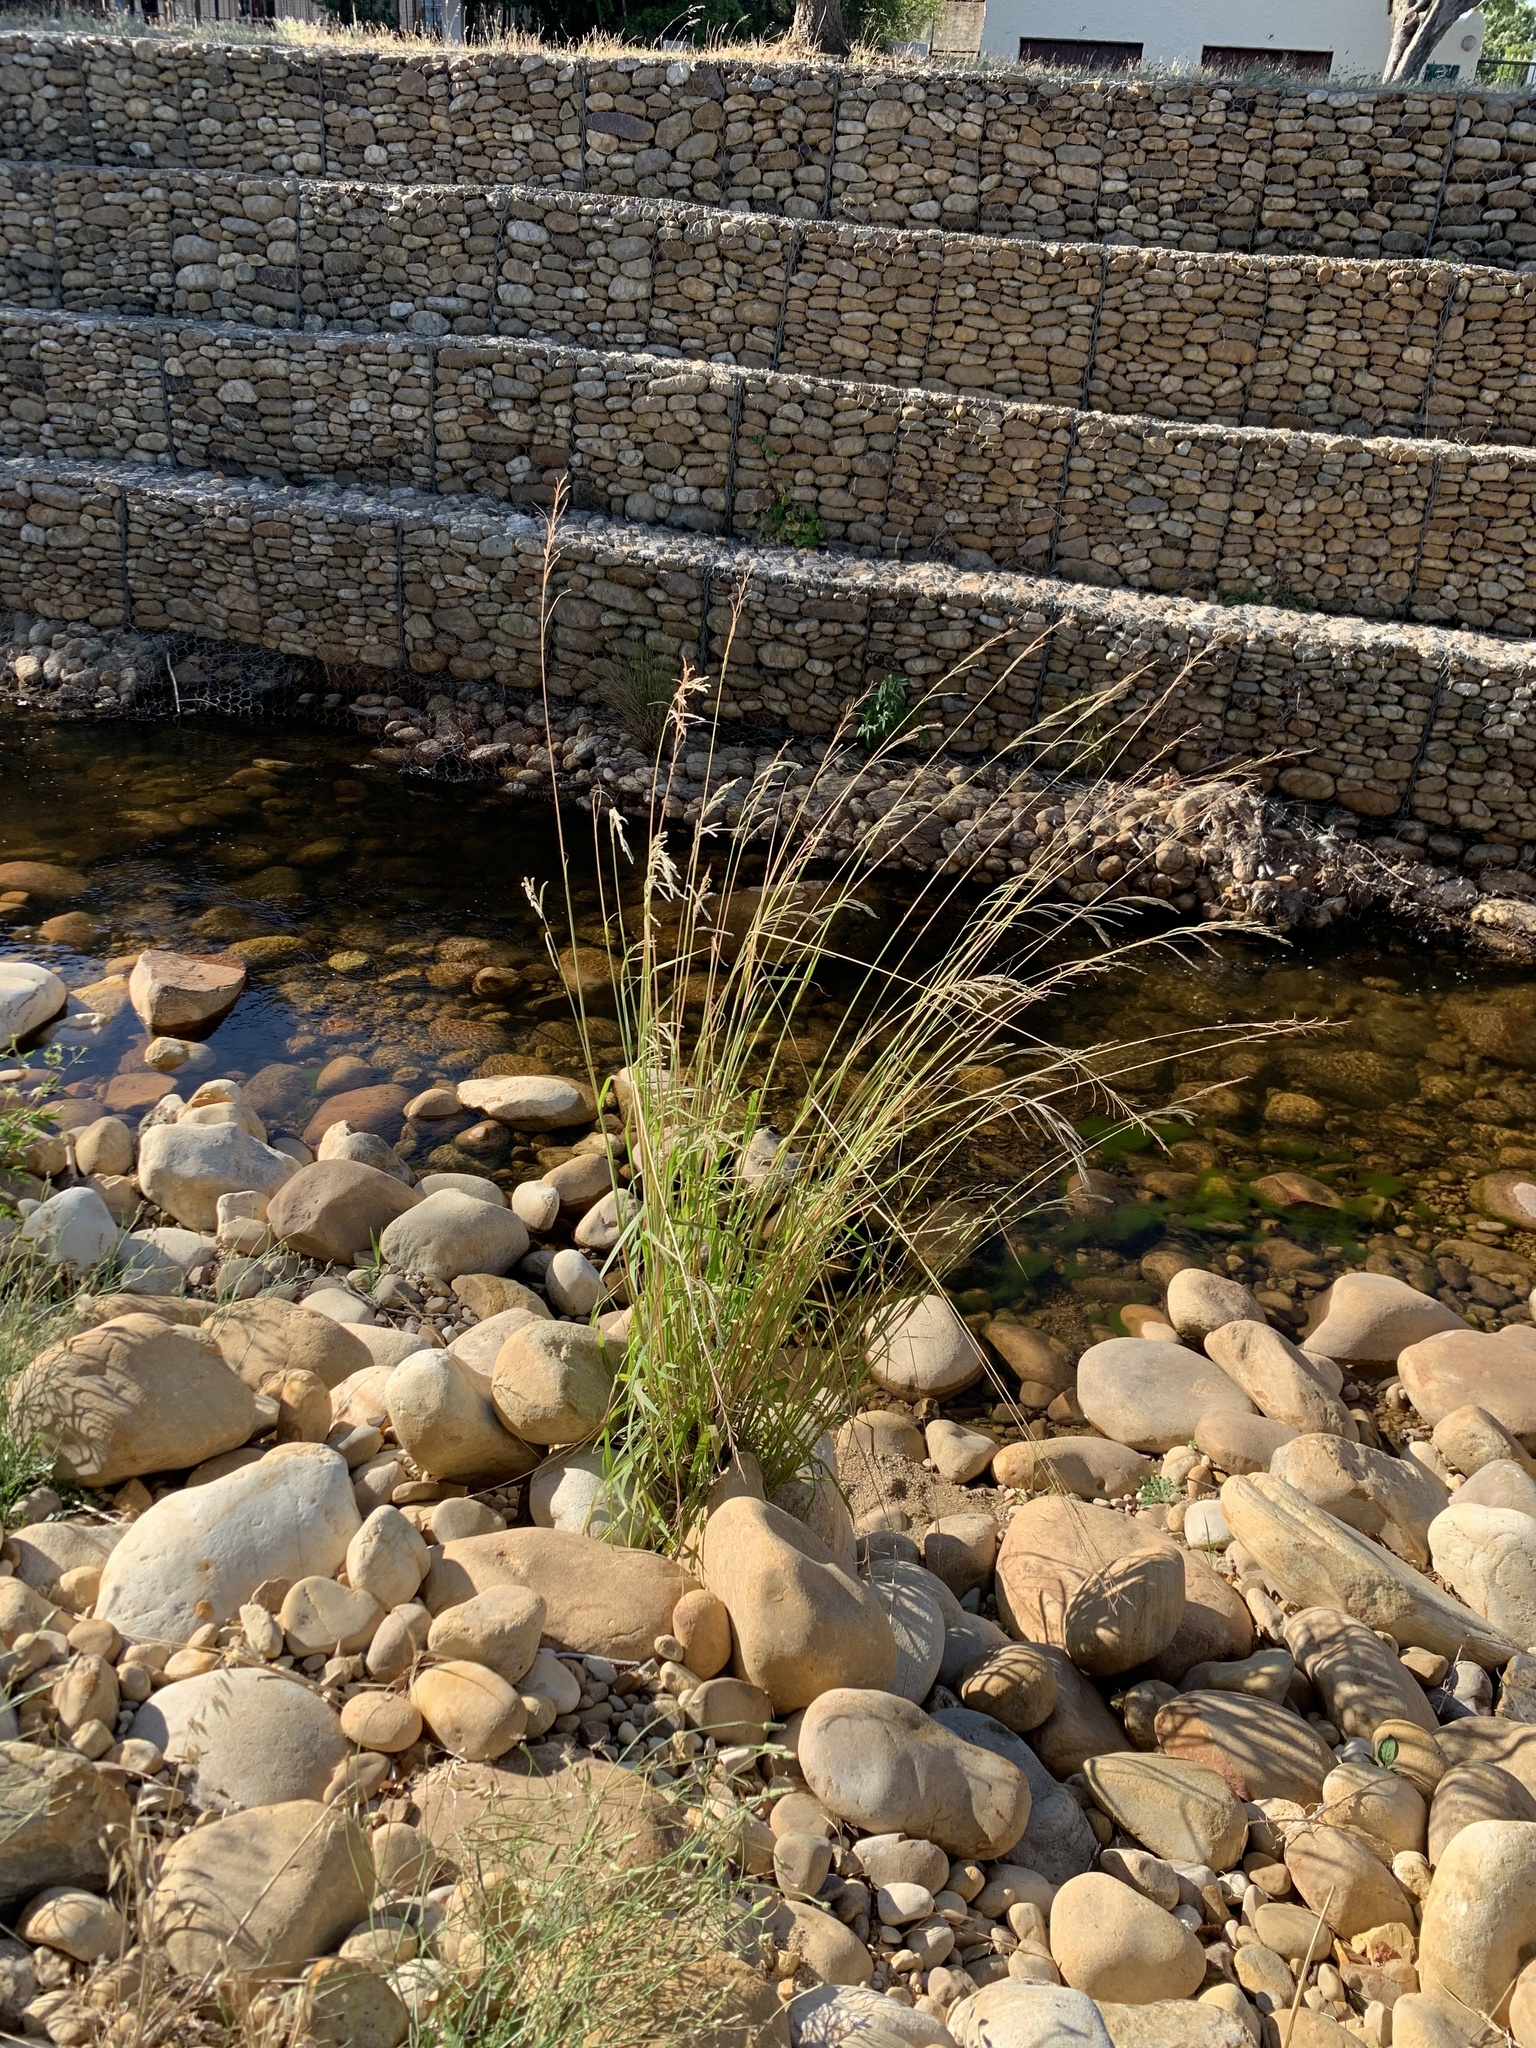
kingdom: Plantae
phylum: Tracheophyta
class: Liliopsida
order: Poales
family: Poaceae
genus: Paspalum
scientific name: Paspalum urvillei
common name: Vasey's grass
